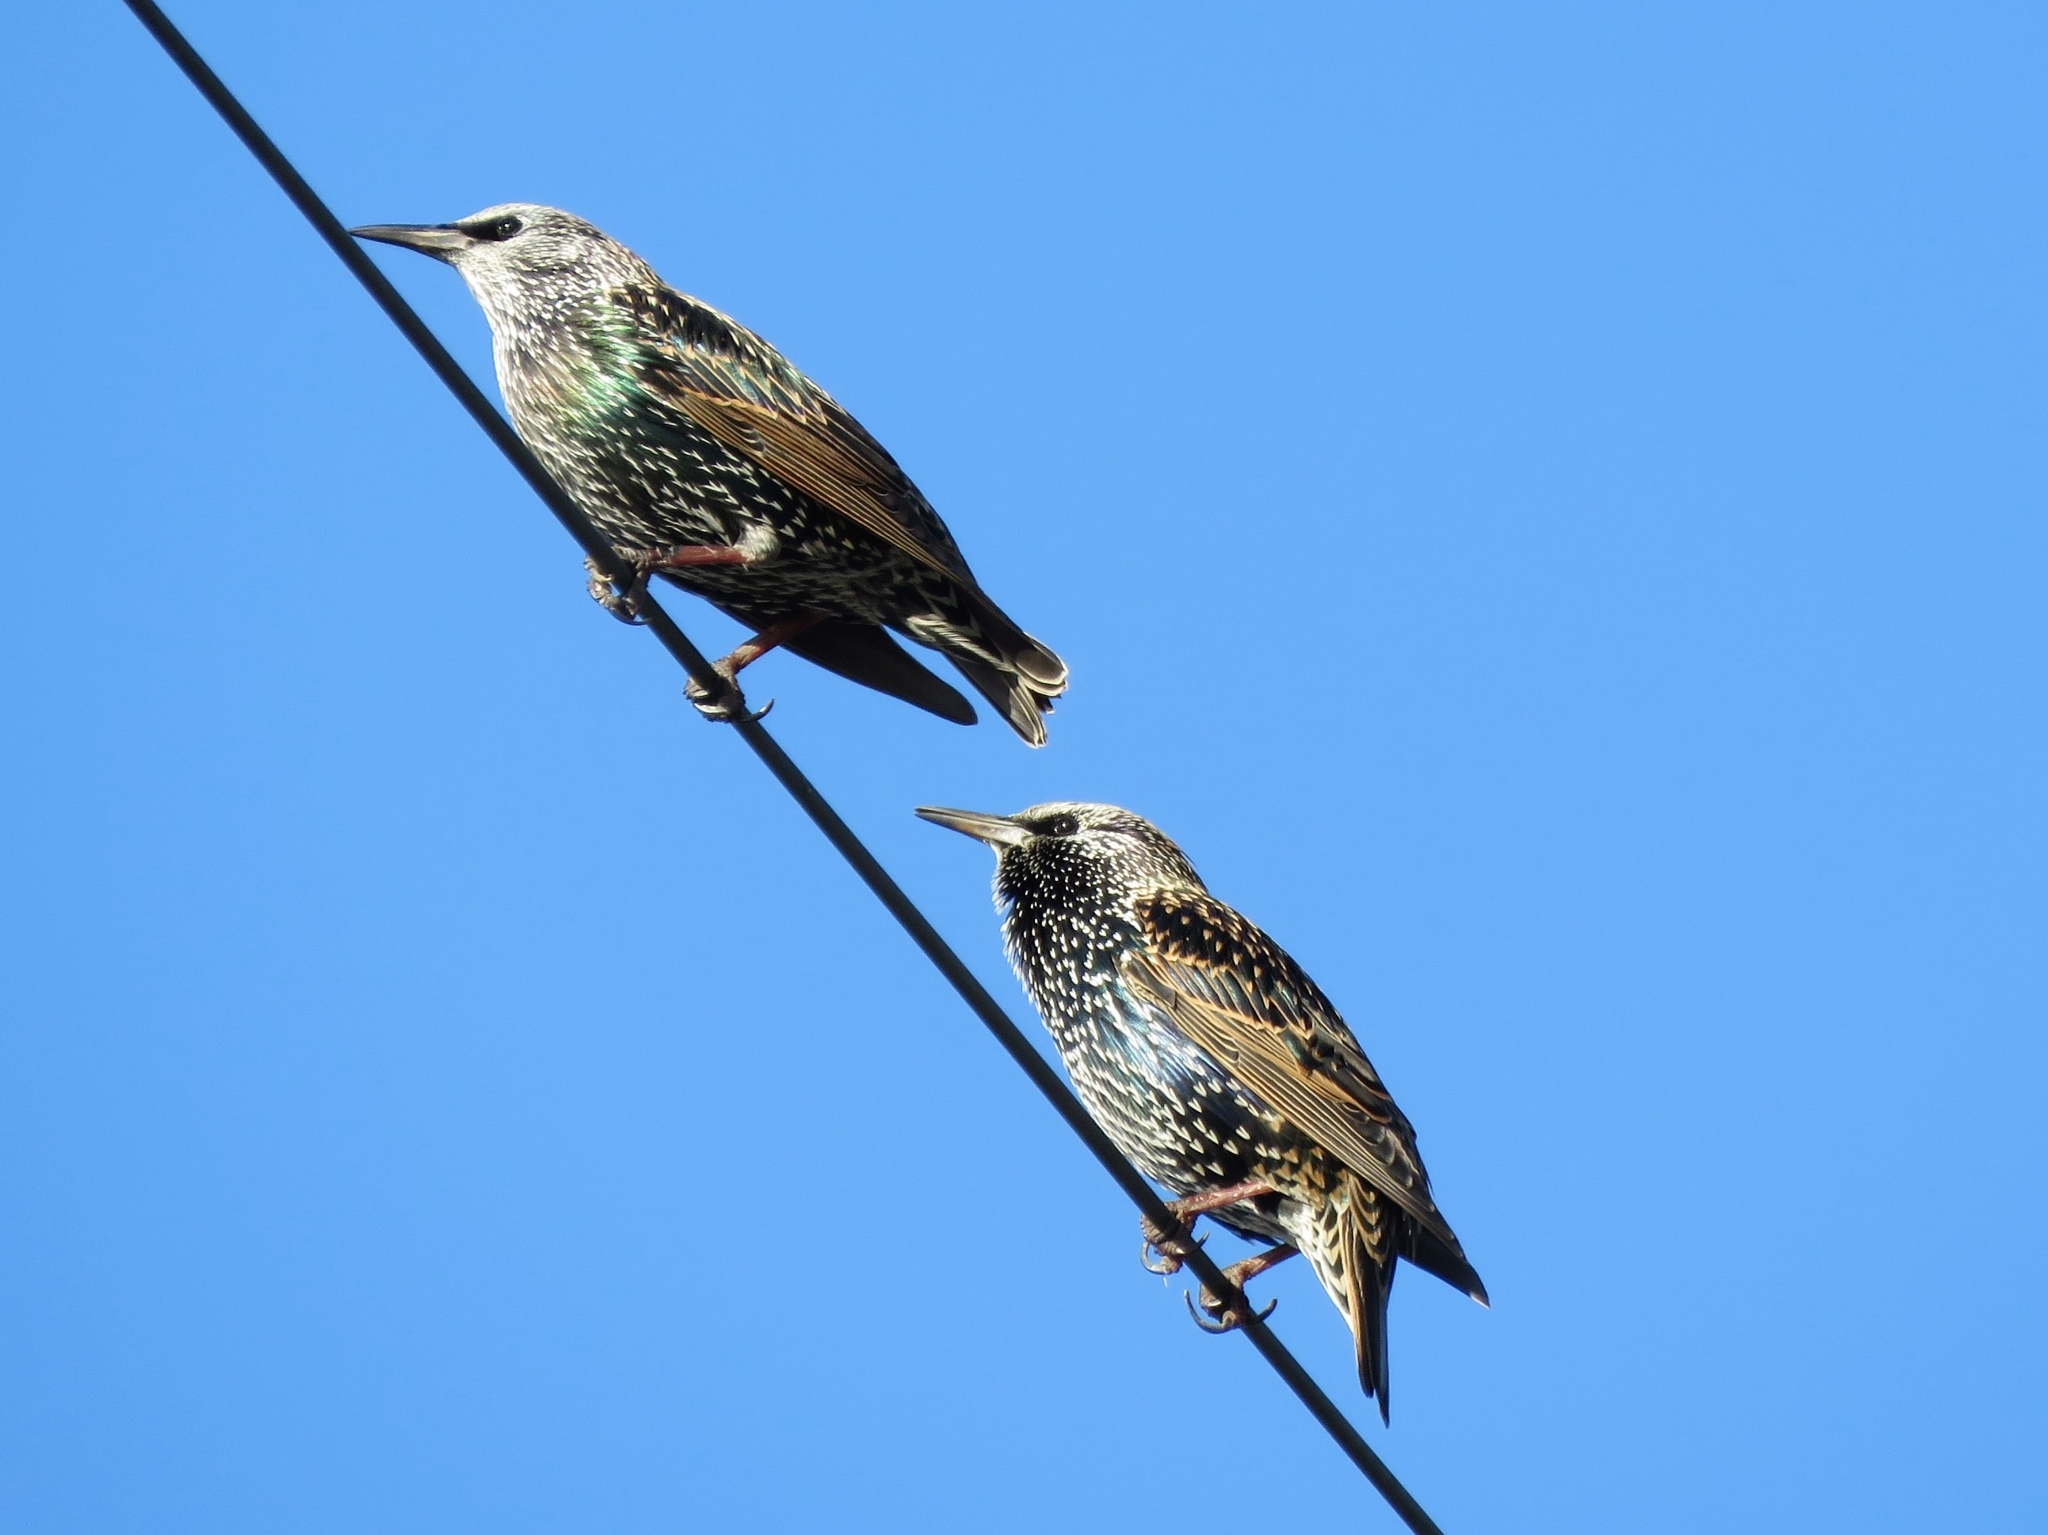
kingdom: Animalia
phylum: Chordata
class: Aves
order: Passeriformes
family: Sturnidae
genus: Sturnus
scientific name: Sturnus vulgaris
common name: Common starling
